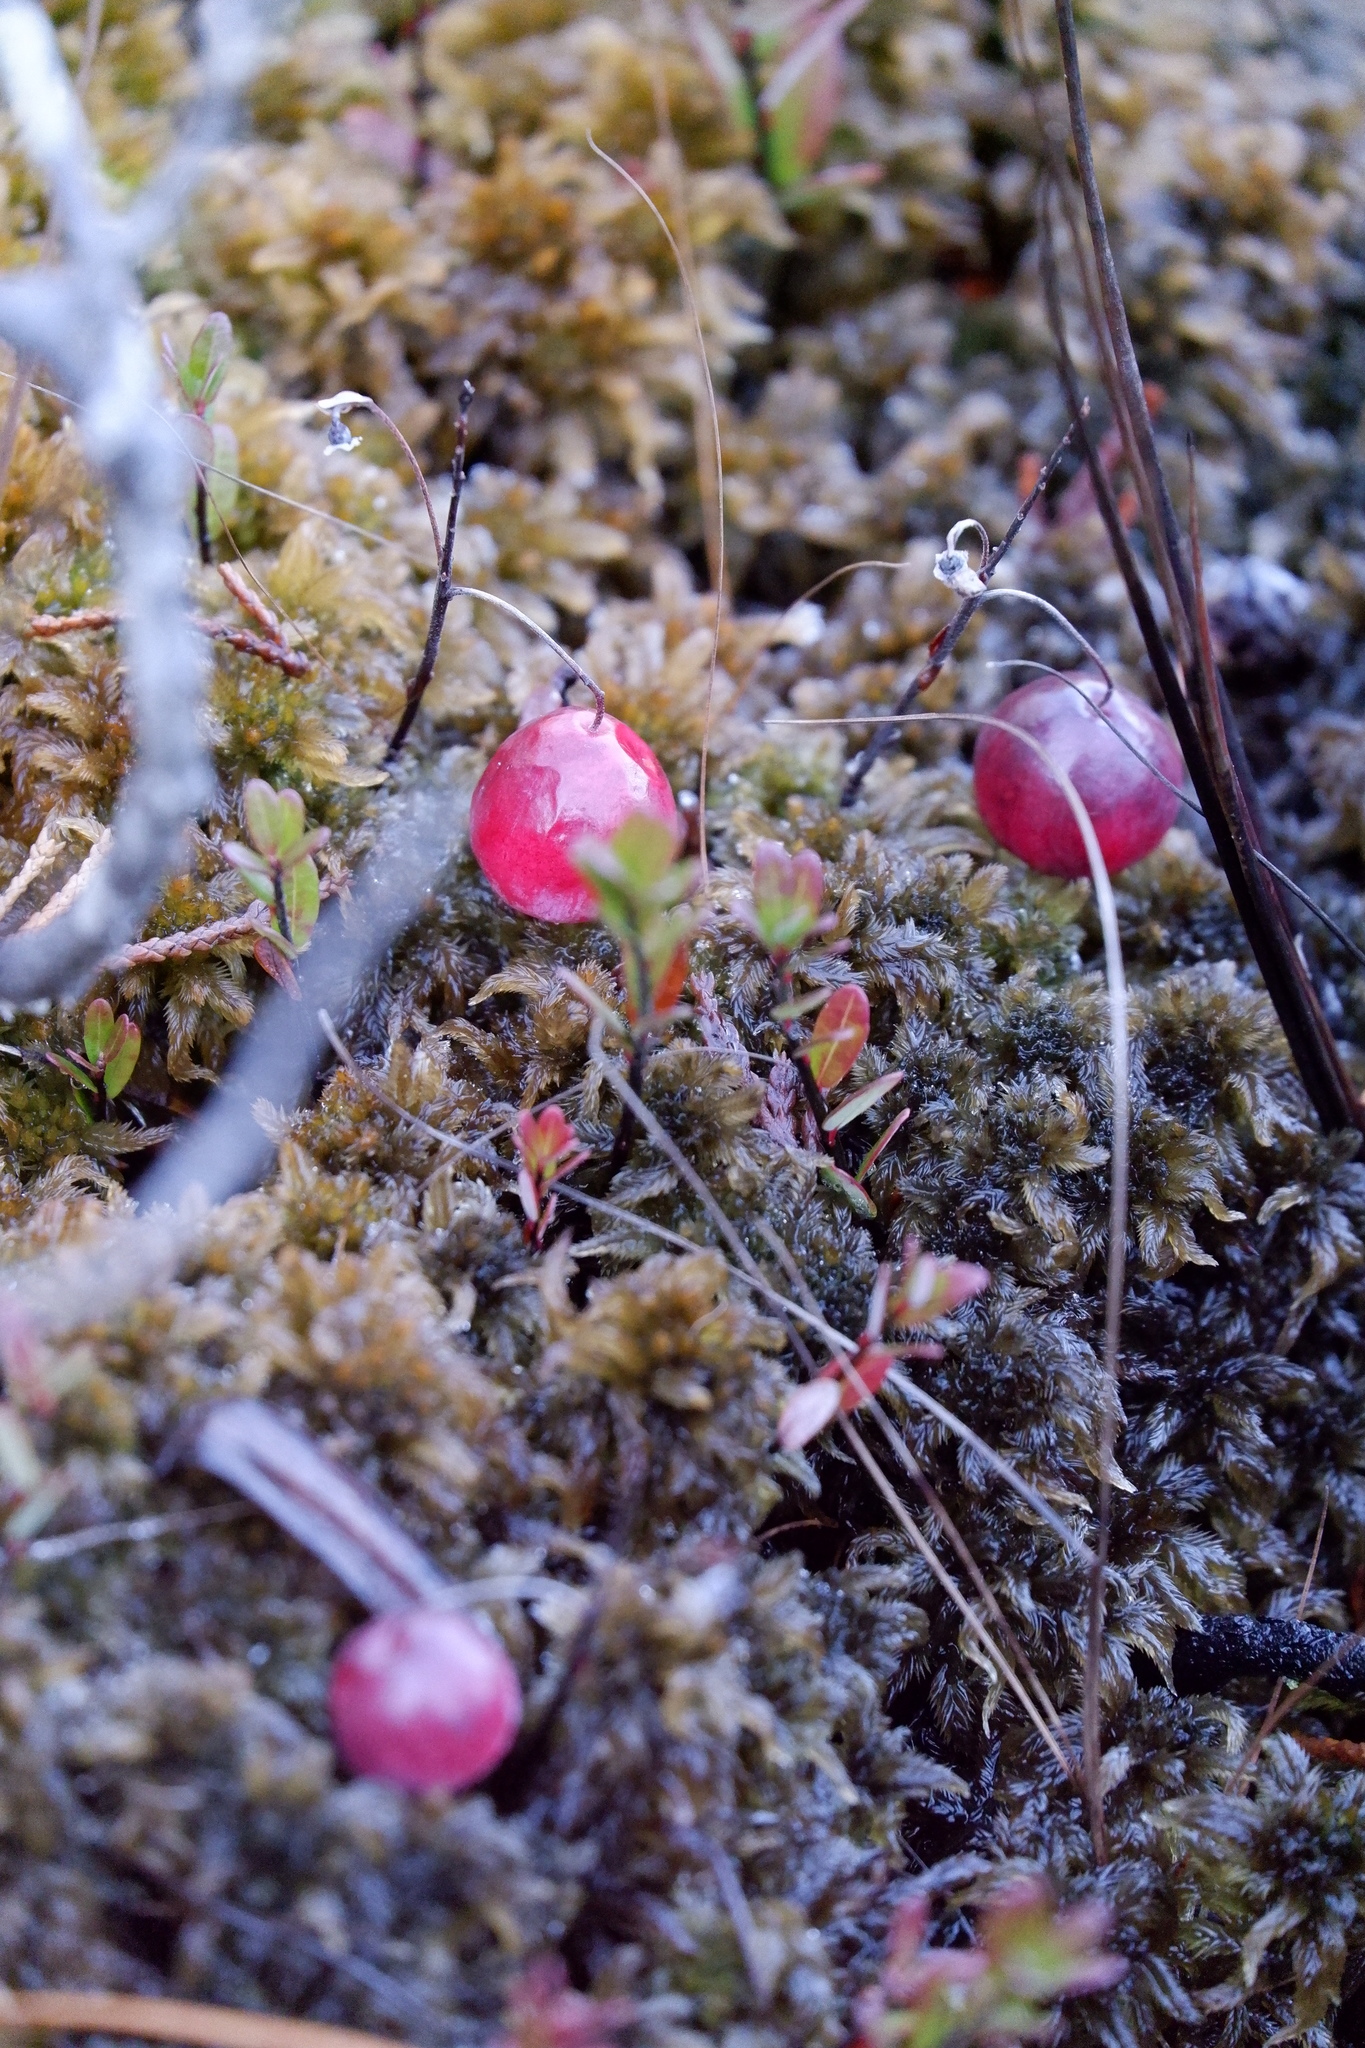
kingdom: Plantae
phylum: Tracheophyta
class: Magnoliopsida
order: Ericales
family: Ericaceae
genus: Vaccinium
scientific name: Vaccinium macrocarpon
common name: American cranberry
